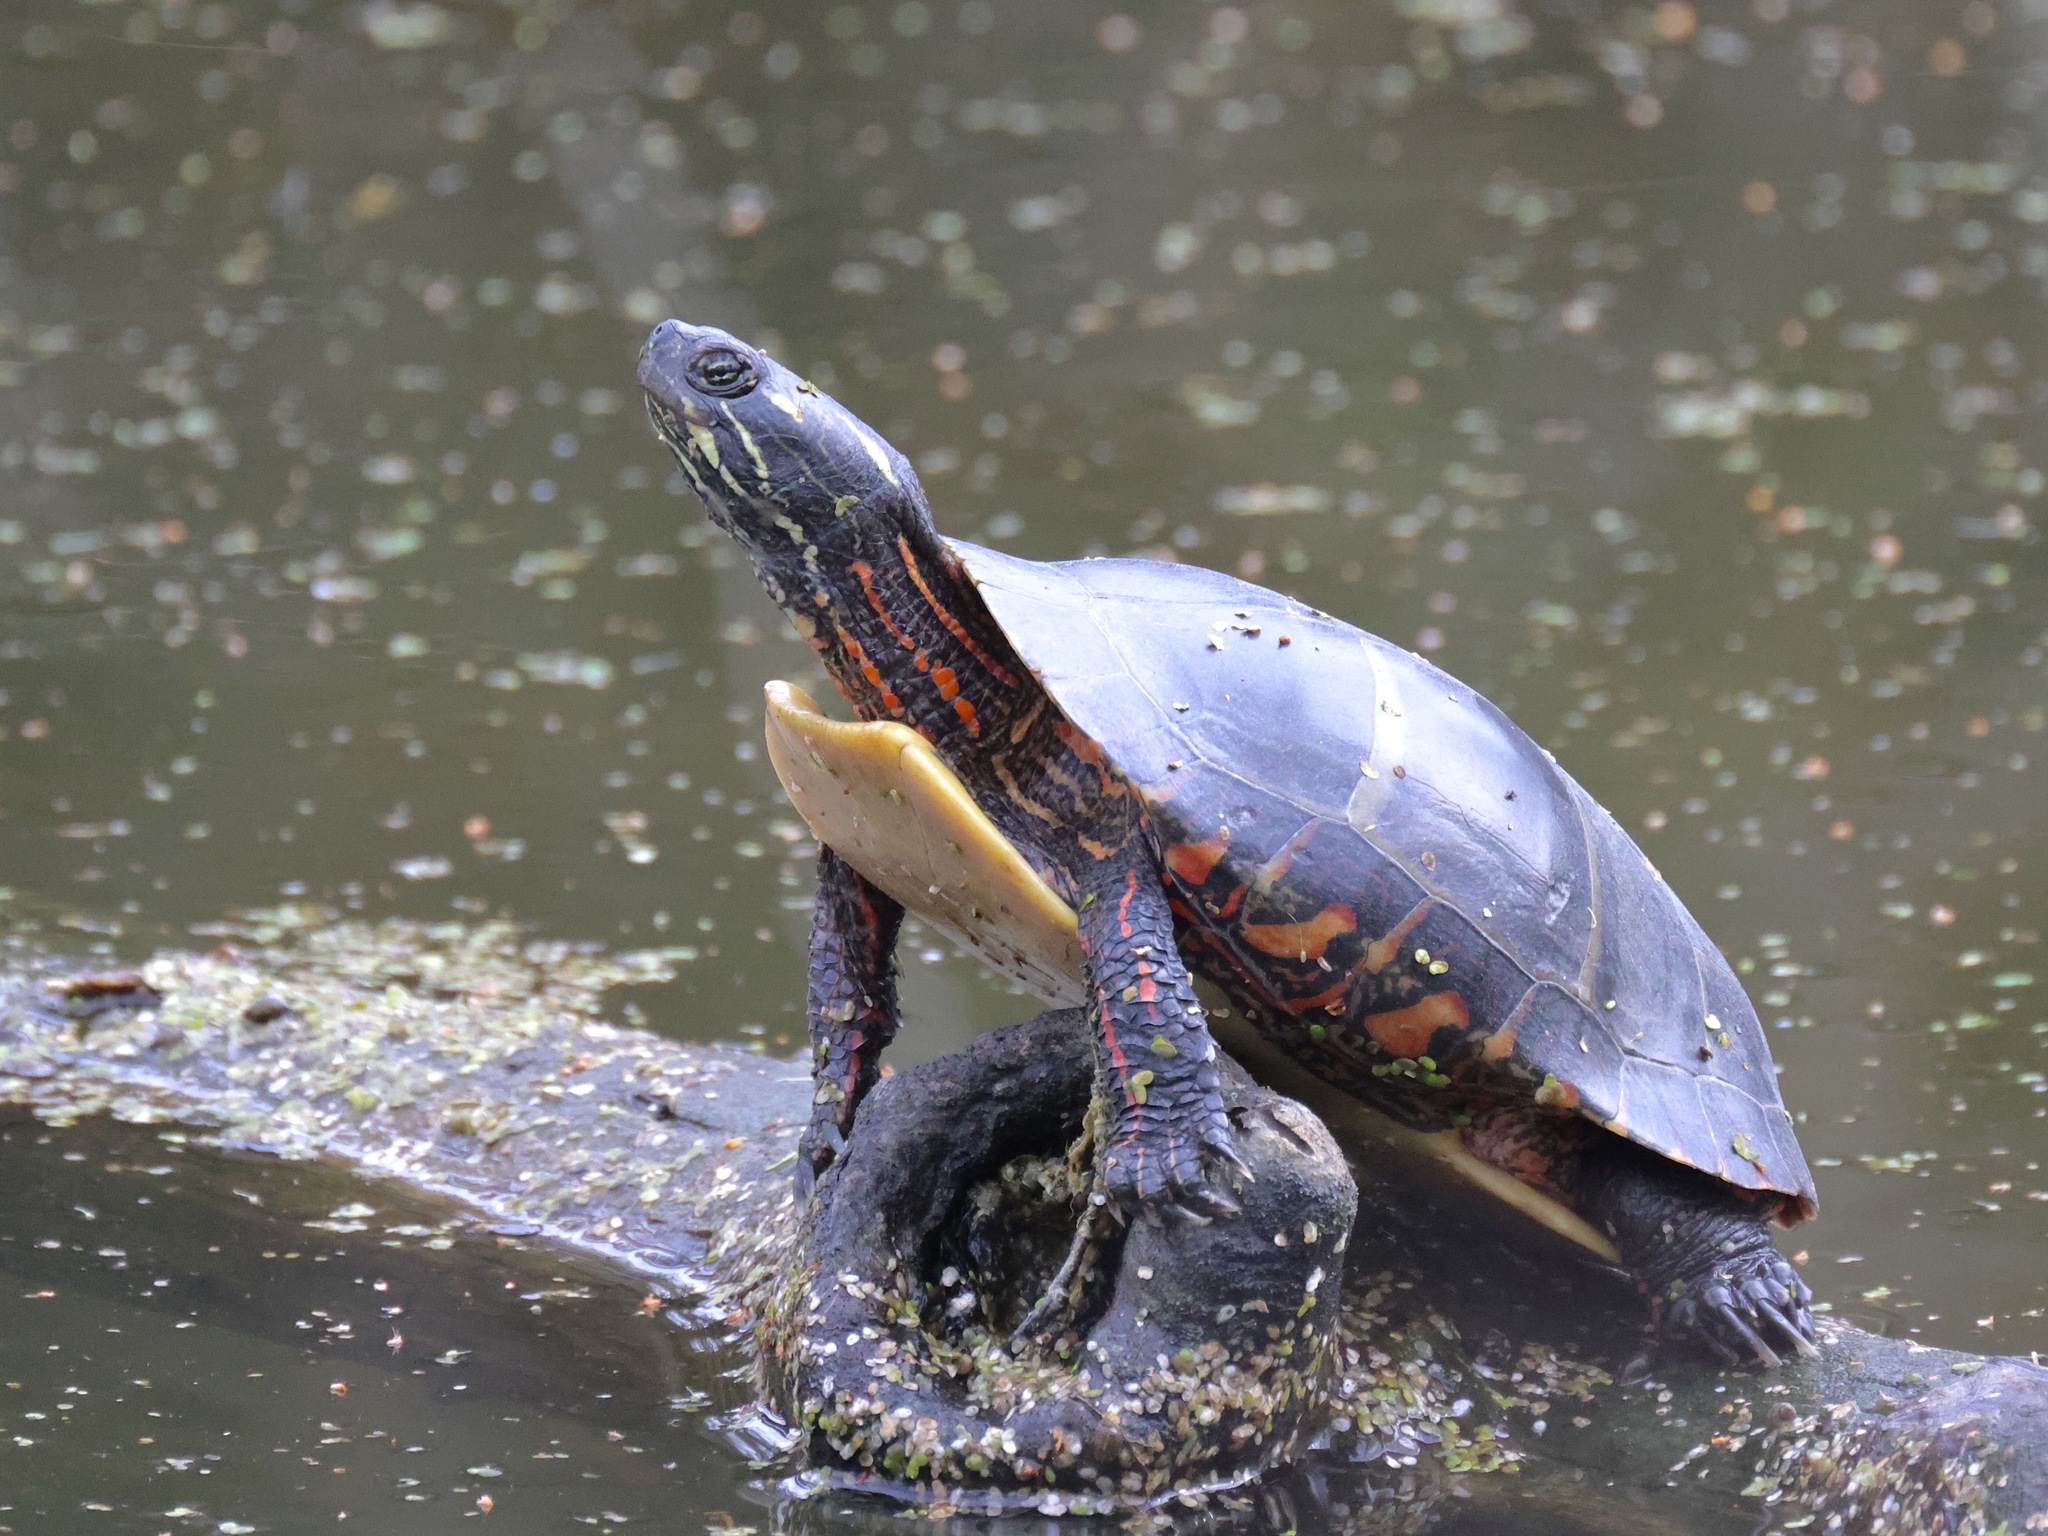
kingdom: Animalia
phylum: Chordata
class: Testudines
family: Emydidae
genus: Chrysemys
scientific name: Chrysemys picta
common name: Painted turtle
